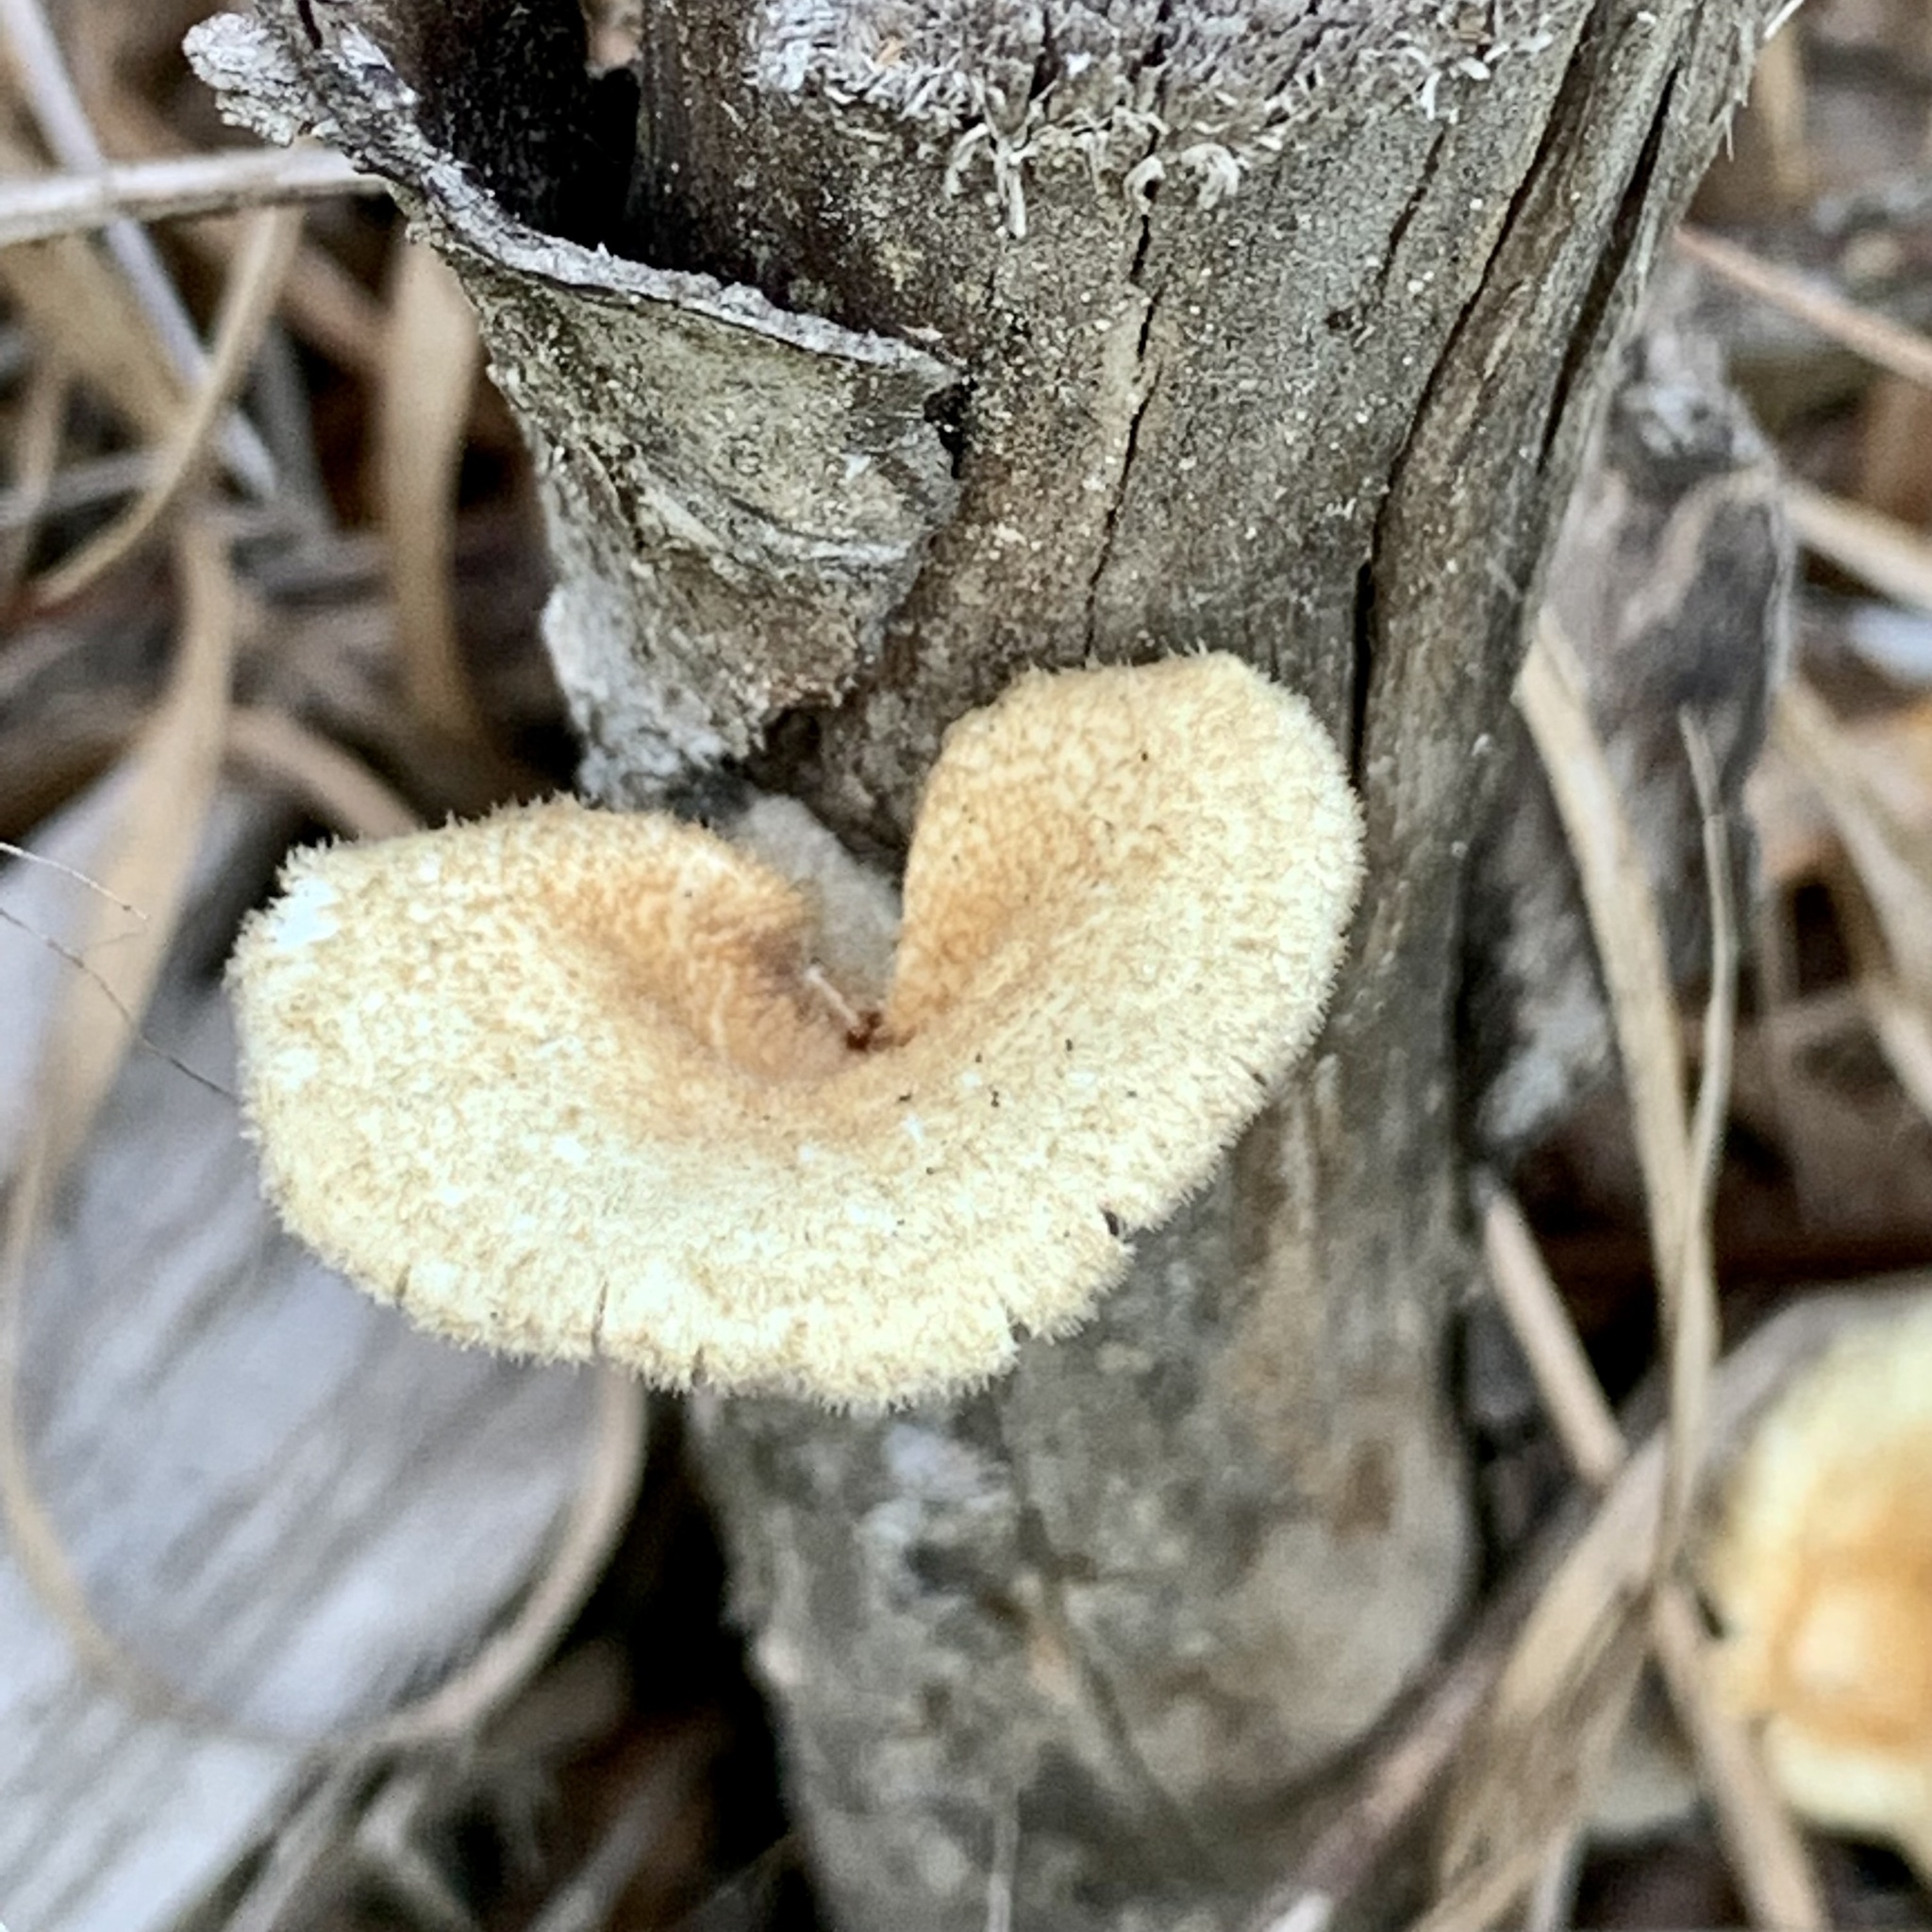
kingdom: Fungi
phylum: Basidiomycota
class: Agaricomycetes
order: Polyporales
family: Panaceae
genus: Panus
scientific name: Panus neostrigosus
